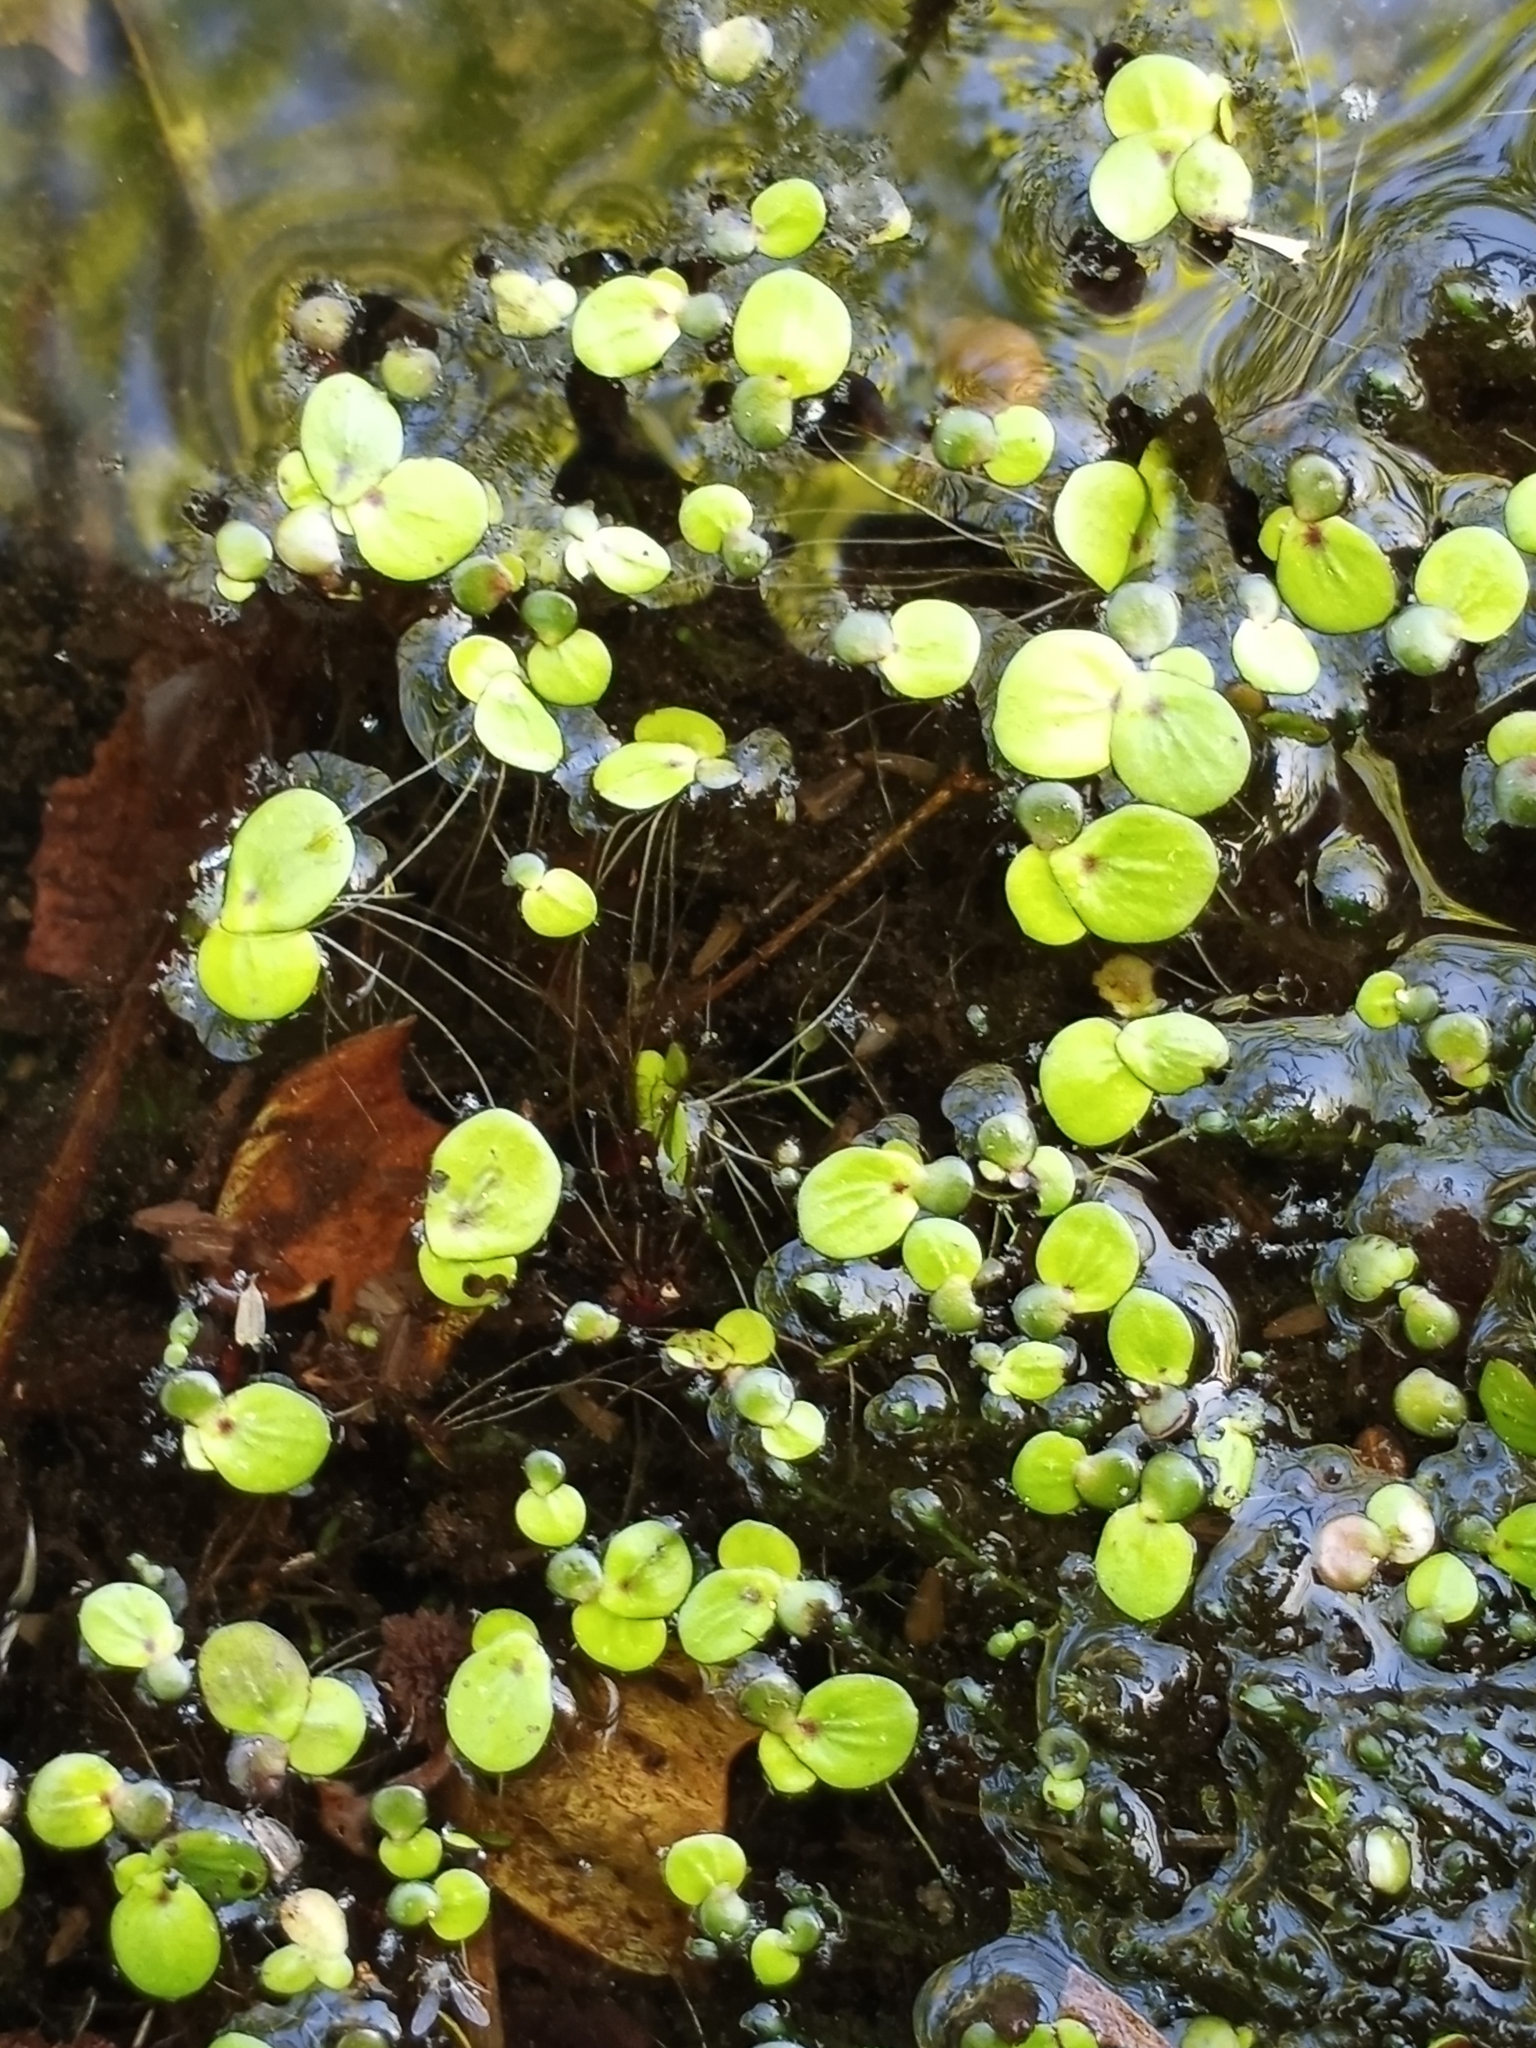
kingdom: Plantae
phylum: Tracheophyta
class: Liliopsida
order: Alismatales
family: Araceae
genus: Spirodela
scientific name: Spirodela polyrhiza
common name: Great duckweed
